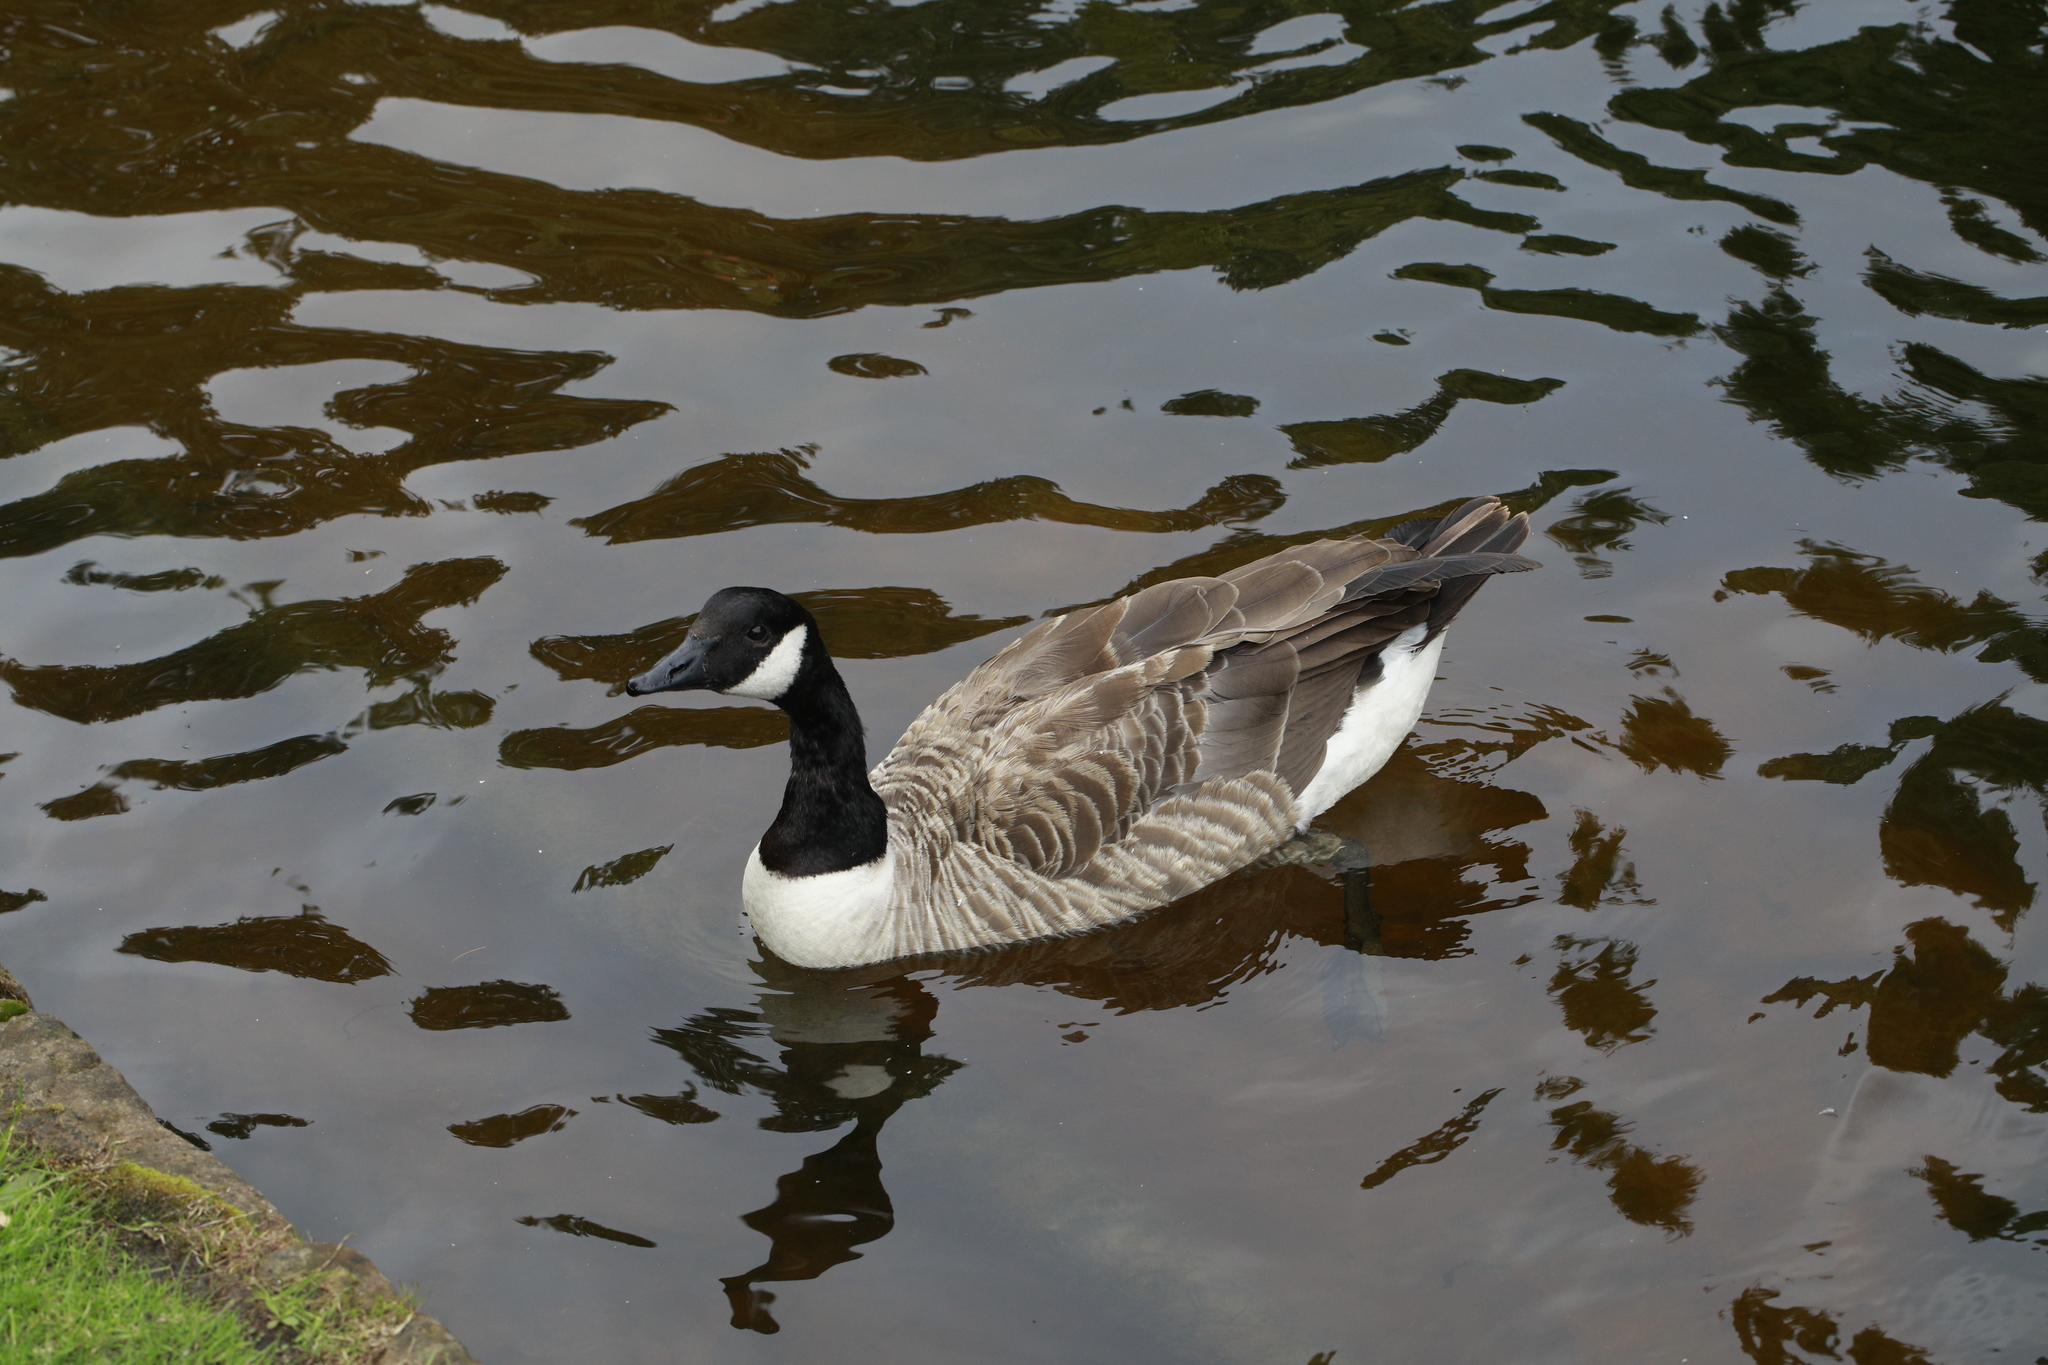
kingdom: Animalia
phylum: Chordata
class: Aves
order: Anseriformes
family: Anatidae
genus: Branta
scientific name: Branta canadensis
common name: Canada goose
